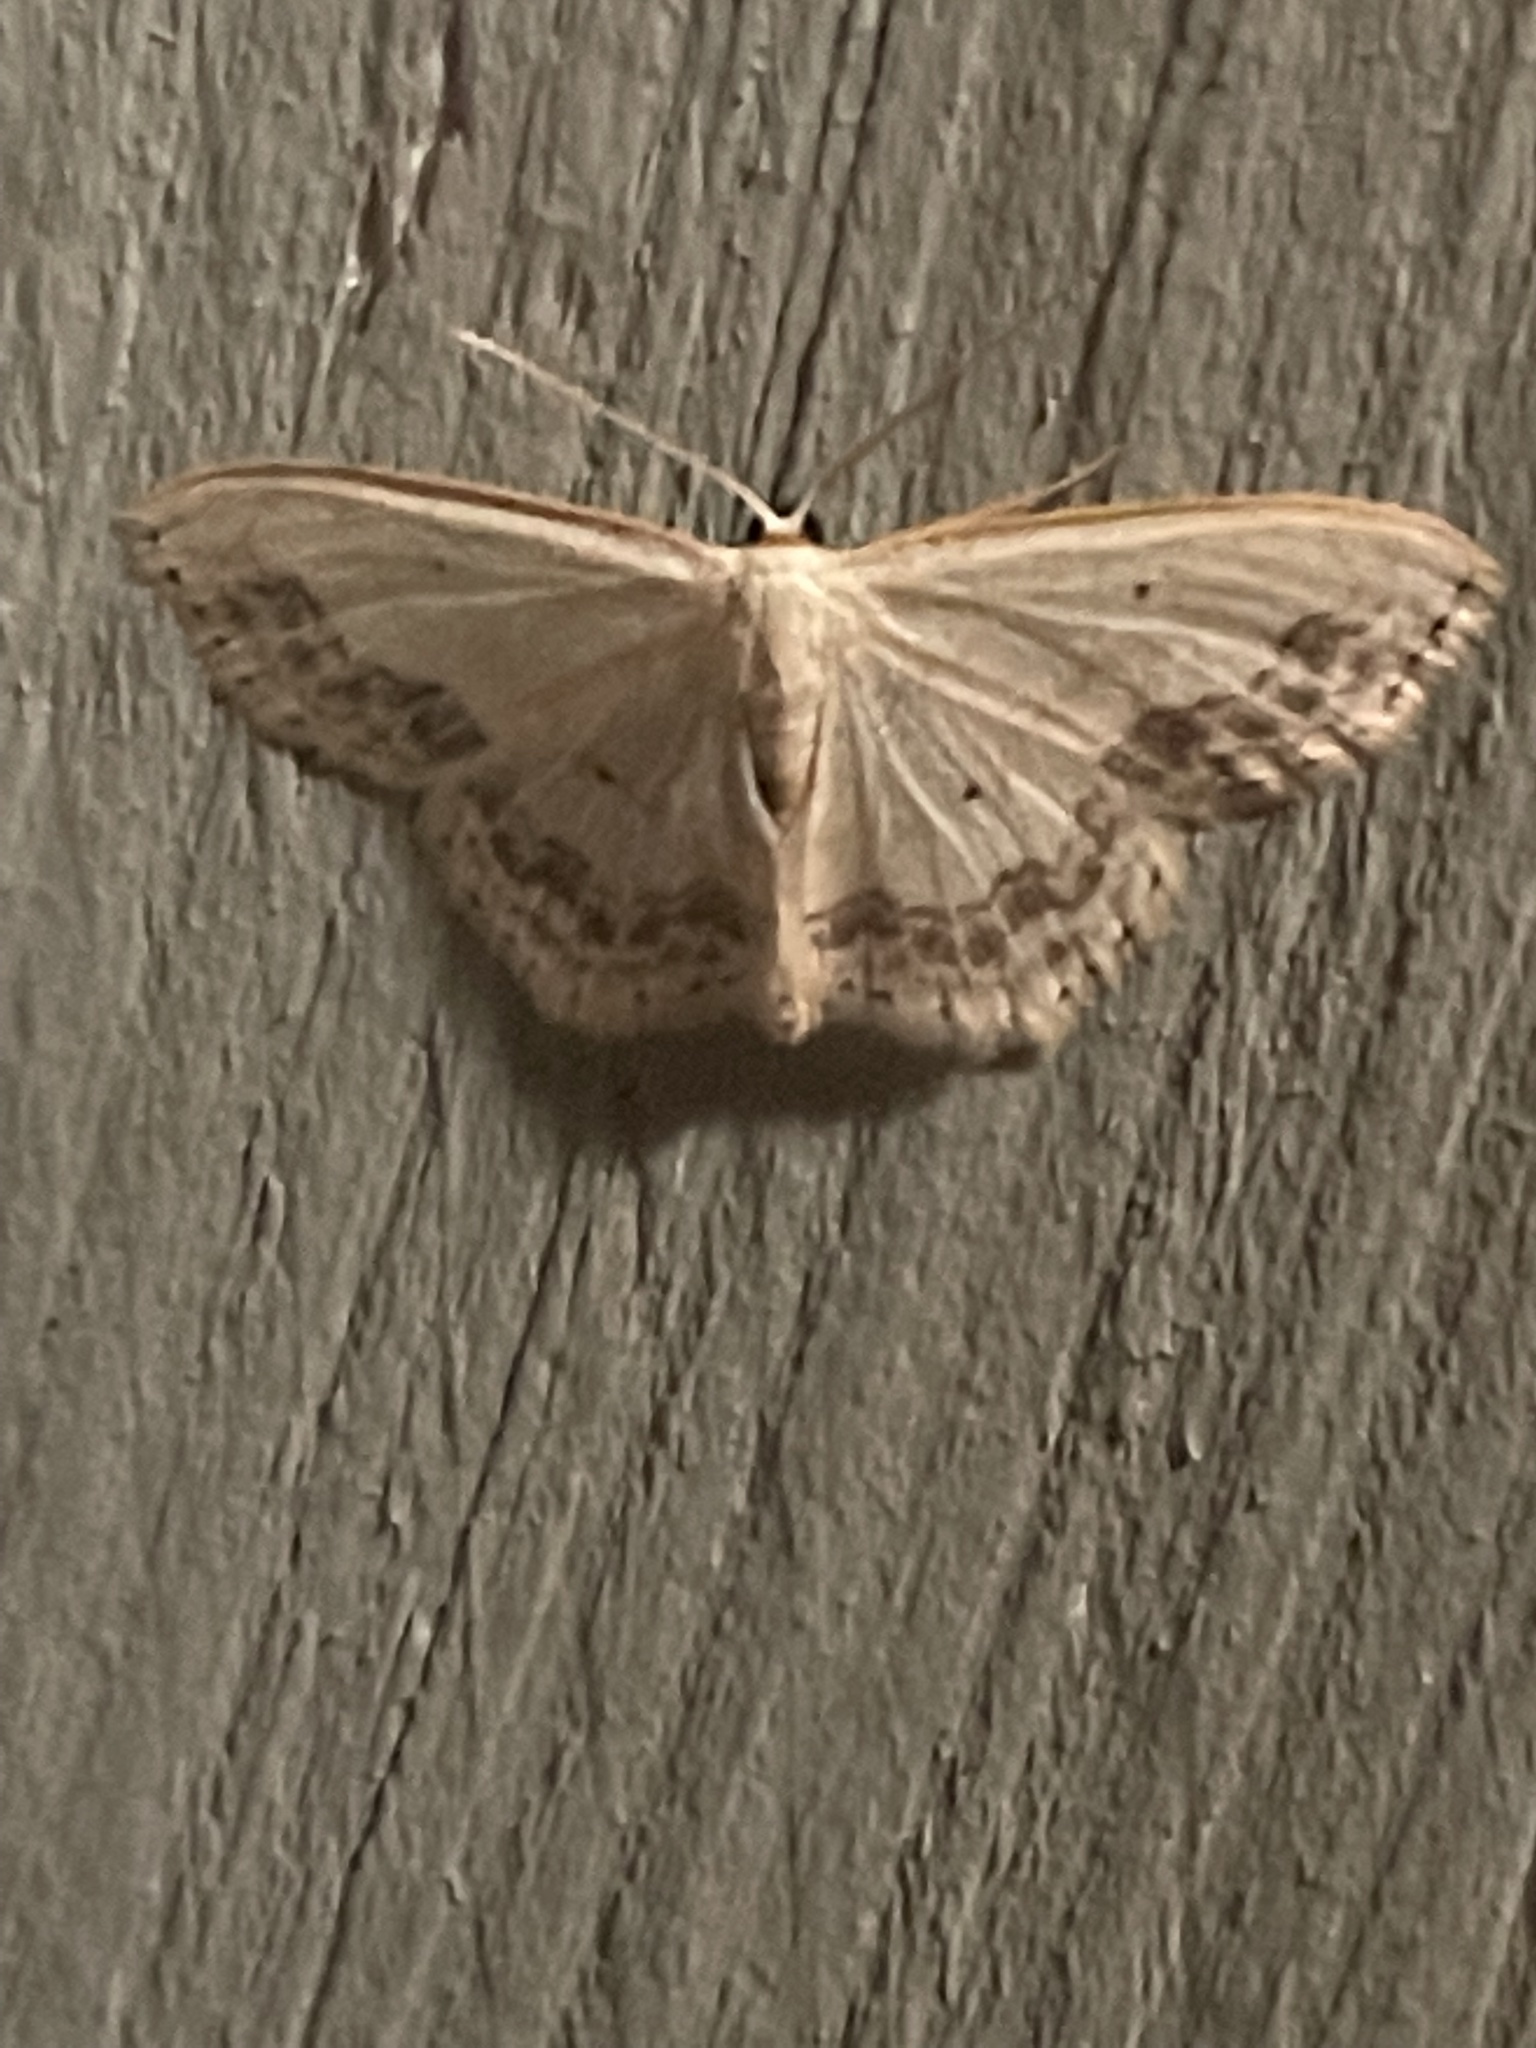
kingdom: Animalia
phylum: Arthropoda
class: Insecta
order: Lepidoptera
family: Geometridae
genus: Scopula
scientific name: Scopula limboundata
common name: Large lace border
